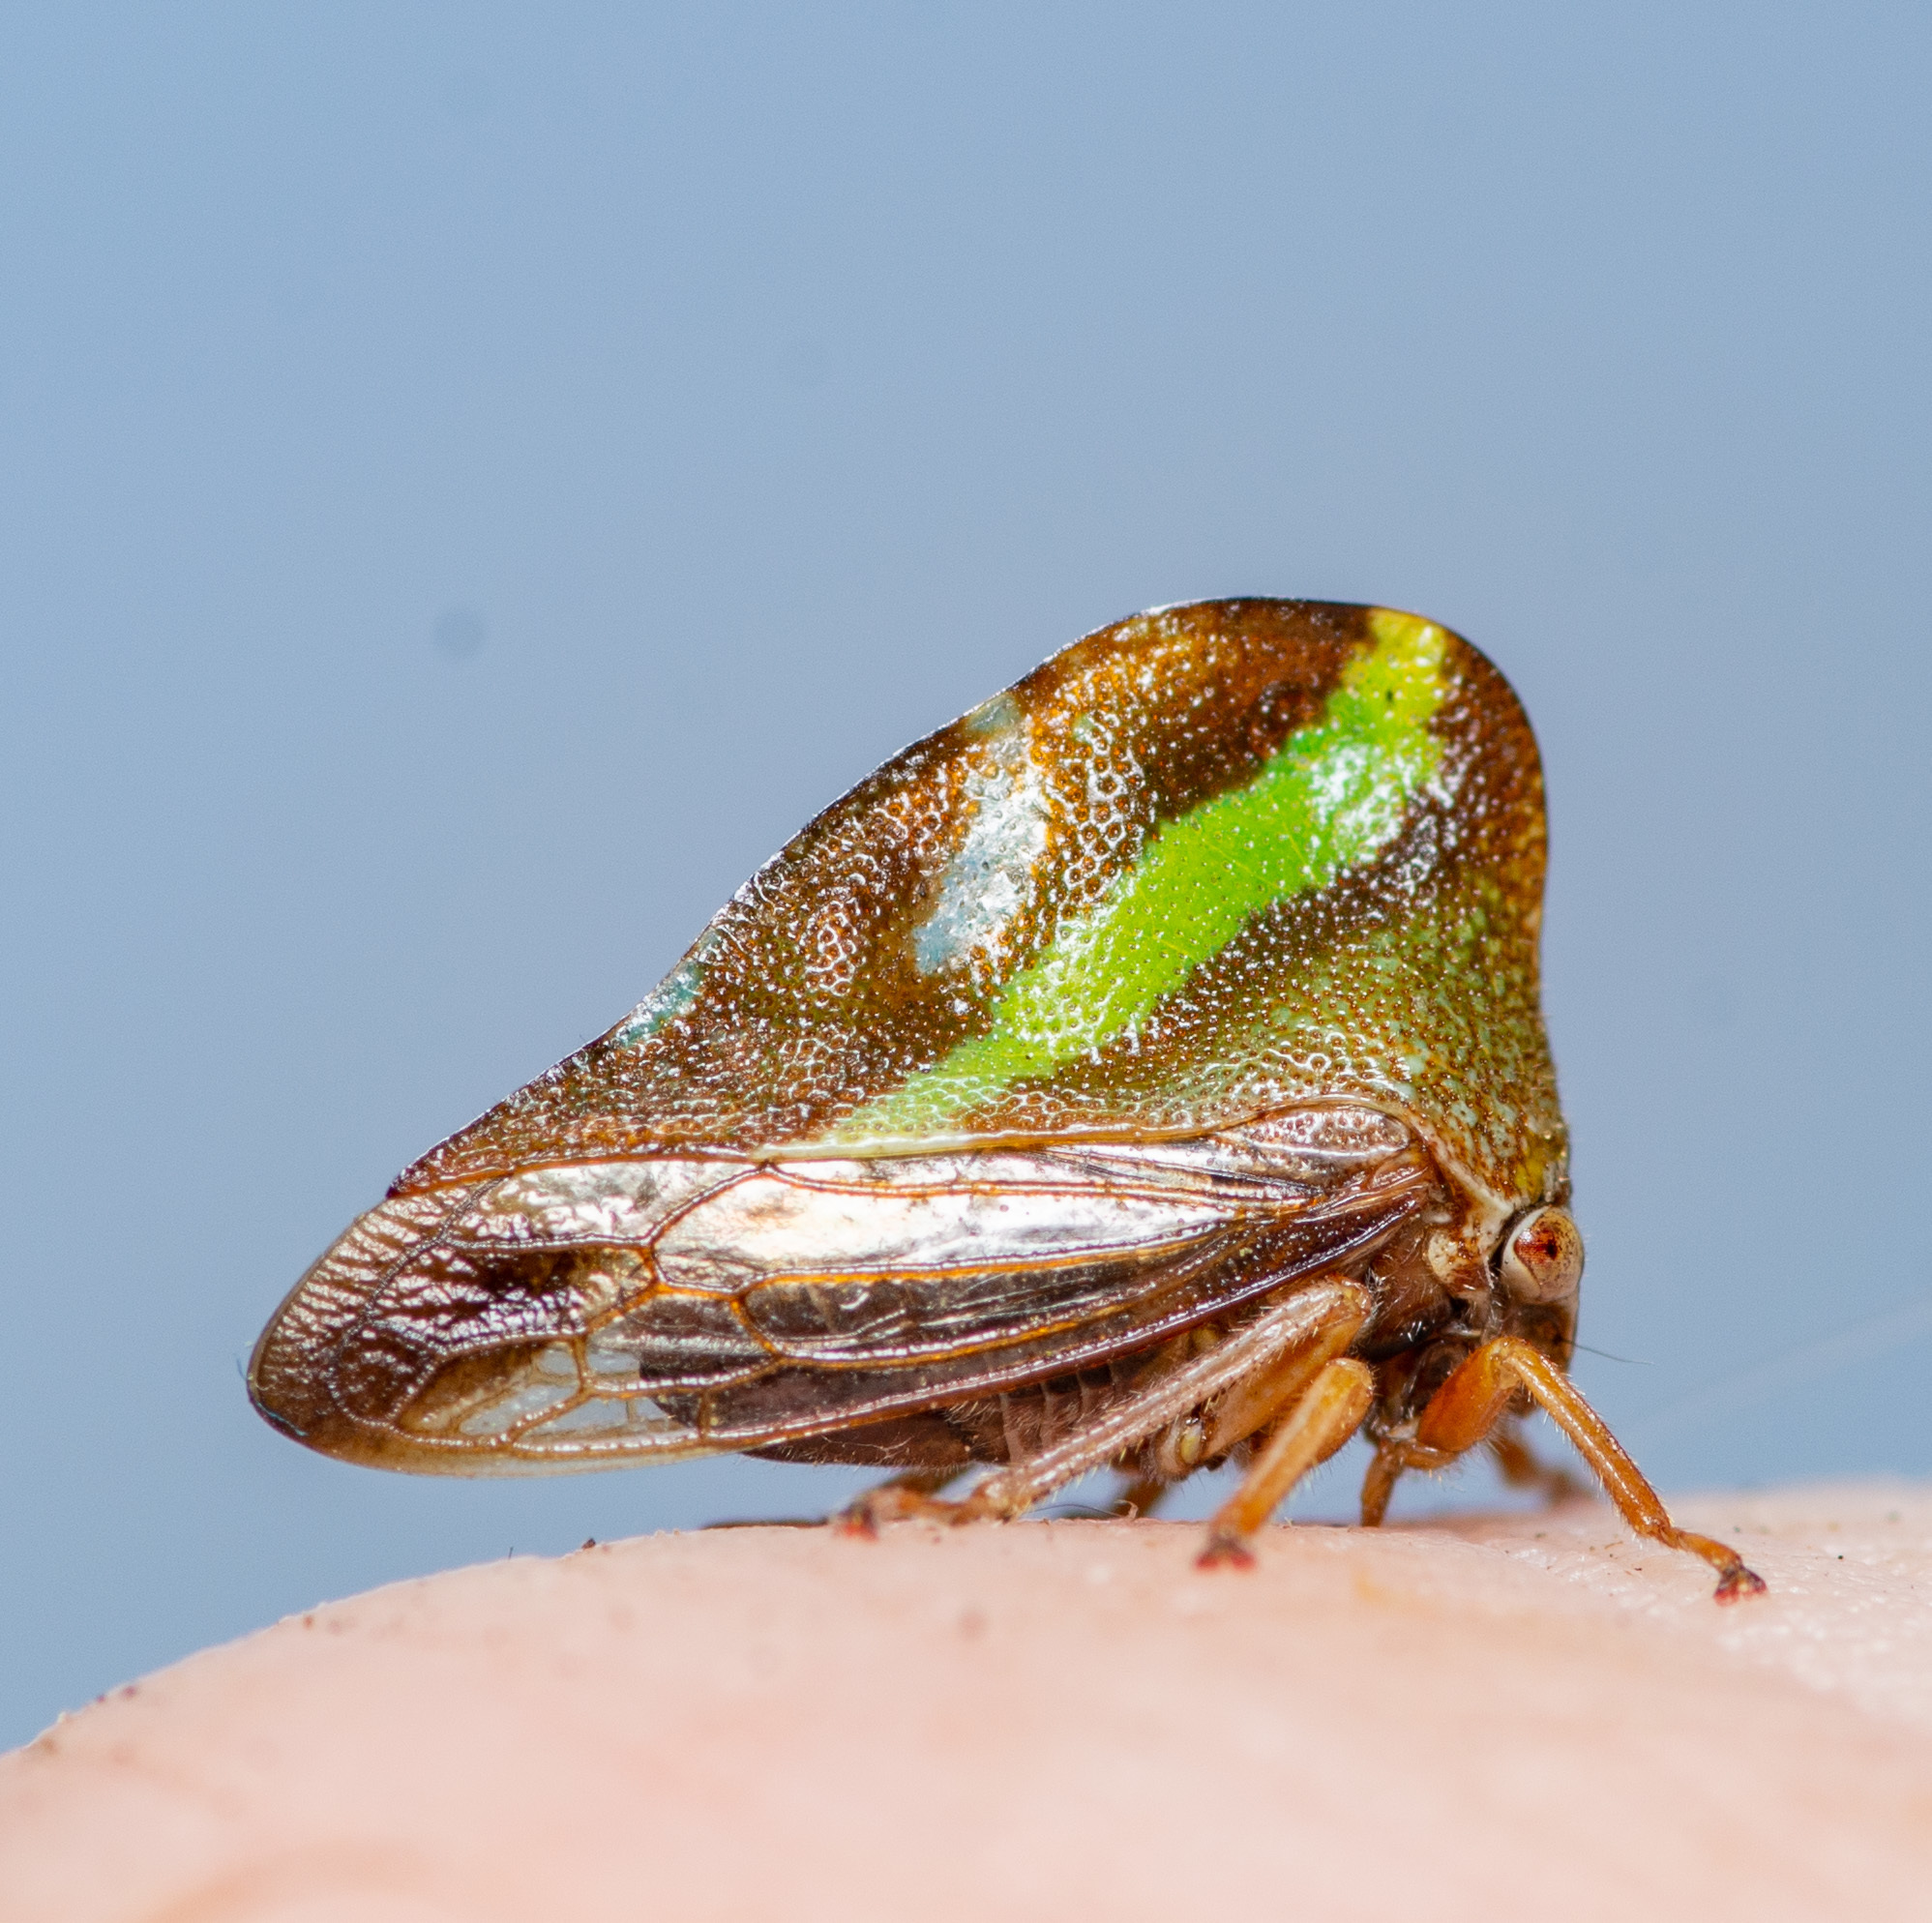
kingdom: Animalia
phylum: Arthropoda
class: Insecta
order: Hemiptera
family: Membracidae
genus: Smilia
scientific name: Smilia camelus
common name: Camel treehopper
